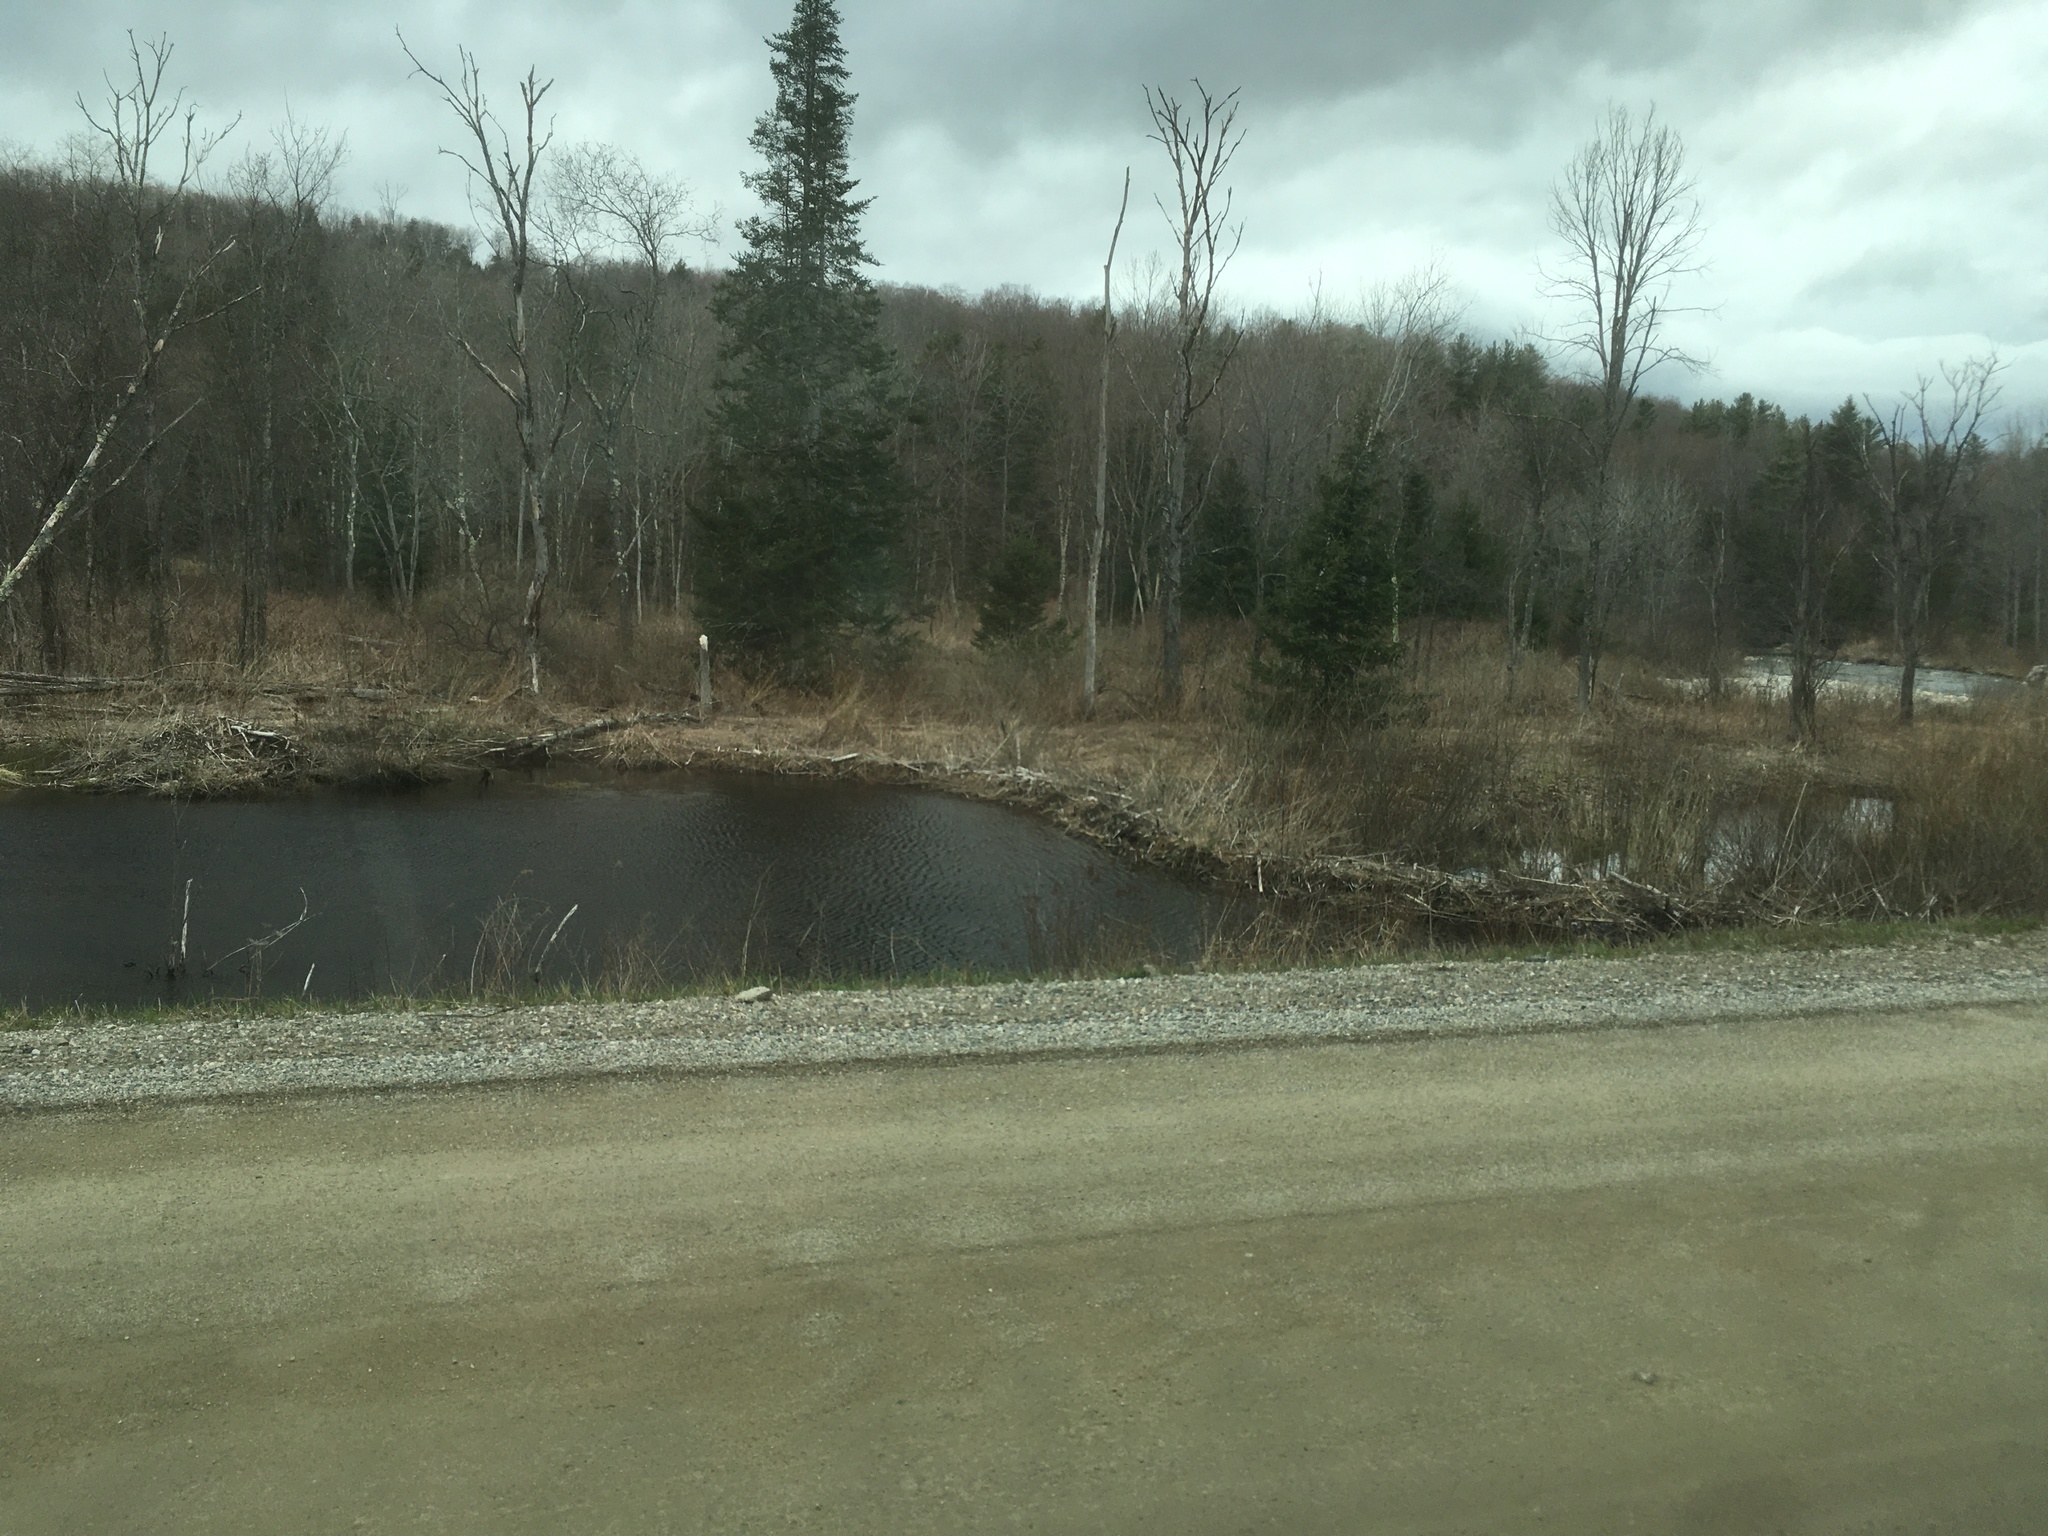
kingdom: Animalia
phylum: Chordata
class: Mammalia
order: Rodentia
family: Castoridae
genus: Castor
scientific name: Castor canadensis
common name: American beaver
